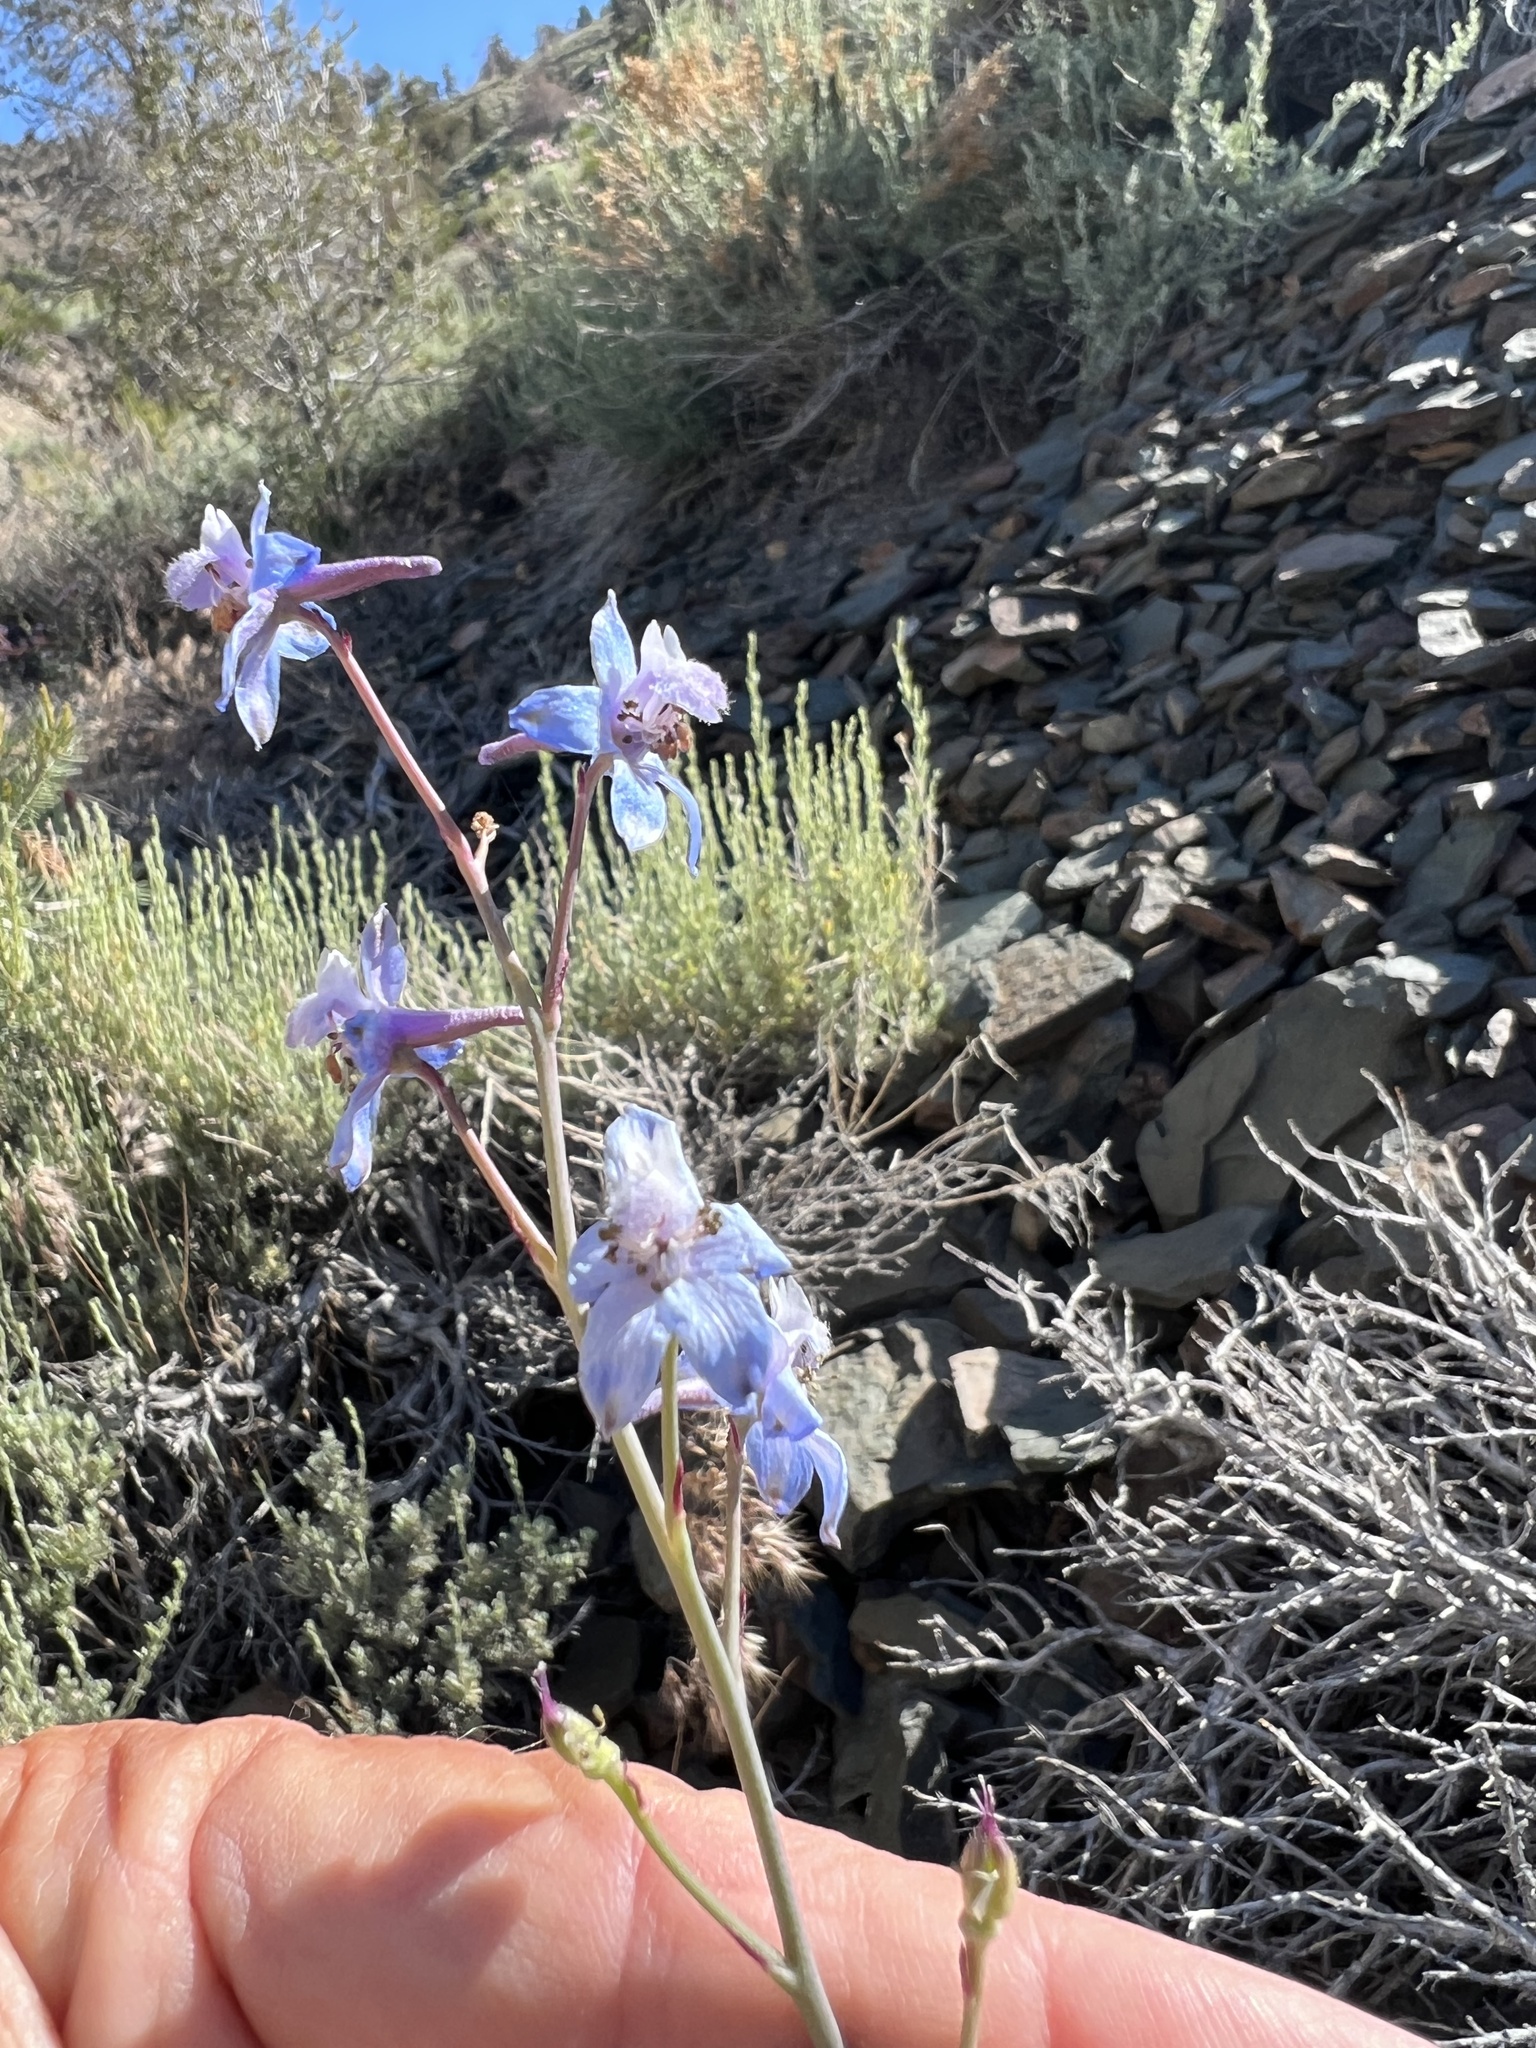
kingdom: Plantae
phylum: Tracheophyta
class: Magnoliopsida
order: Ranunculales
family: Ranunculaceae
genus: Delphinium
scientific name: Delphinium parishii
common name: Apache larkspur
